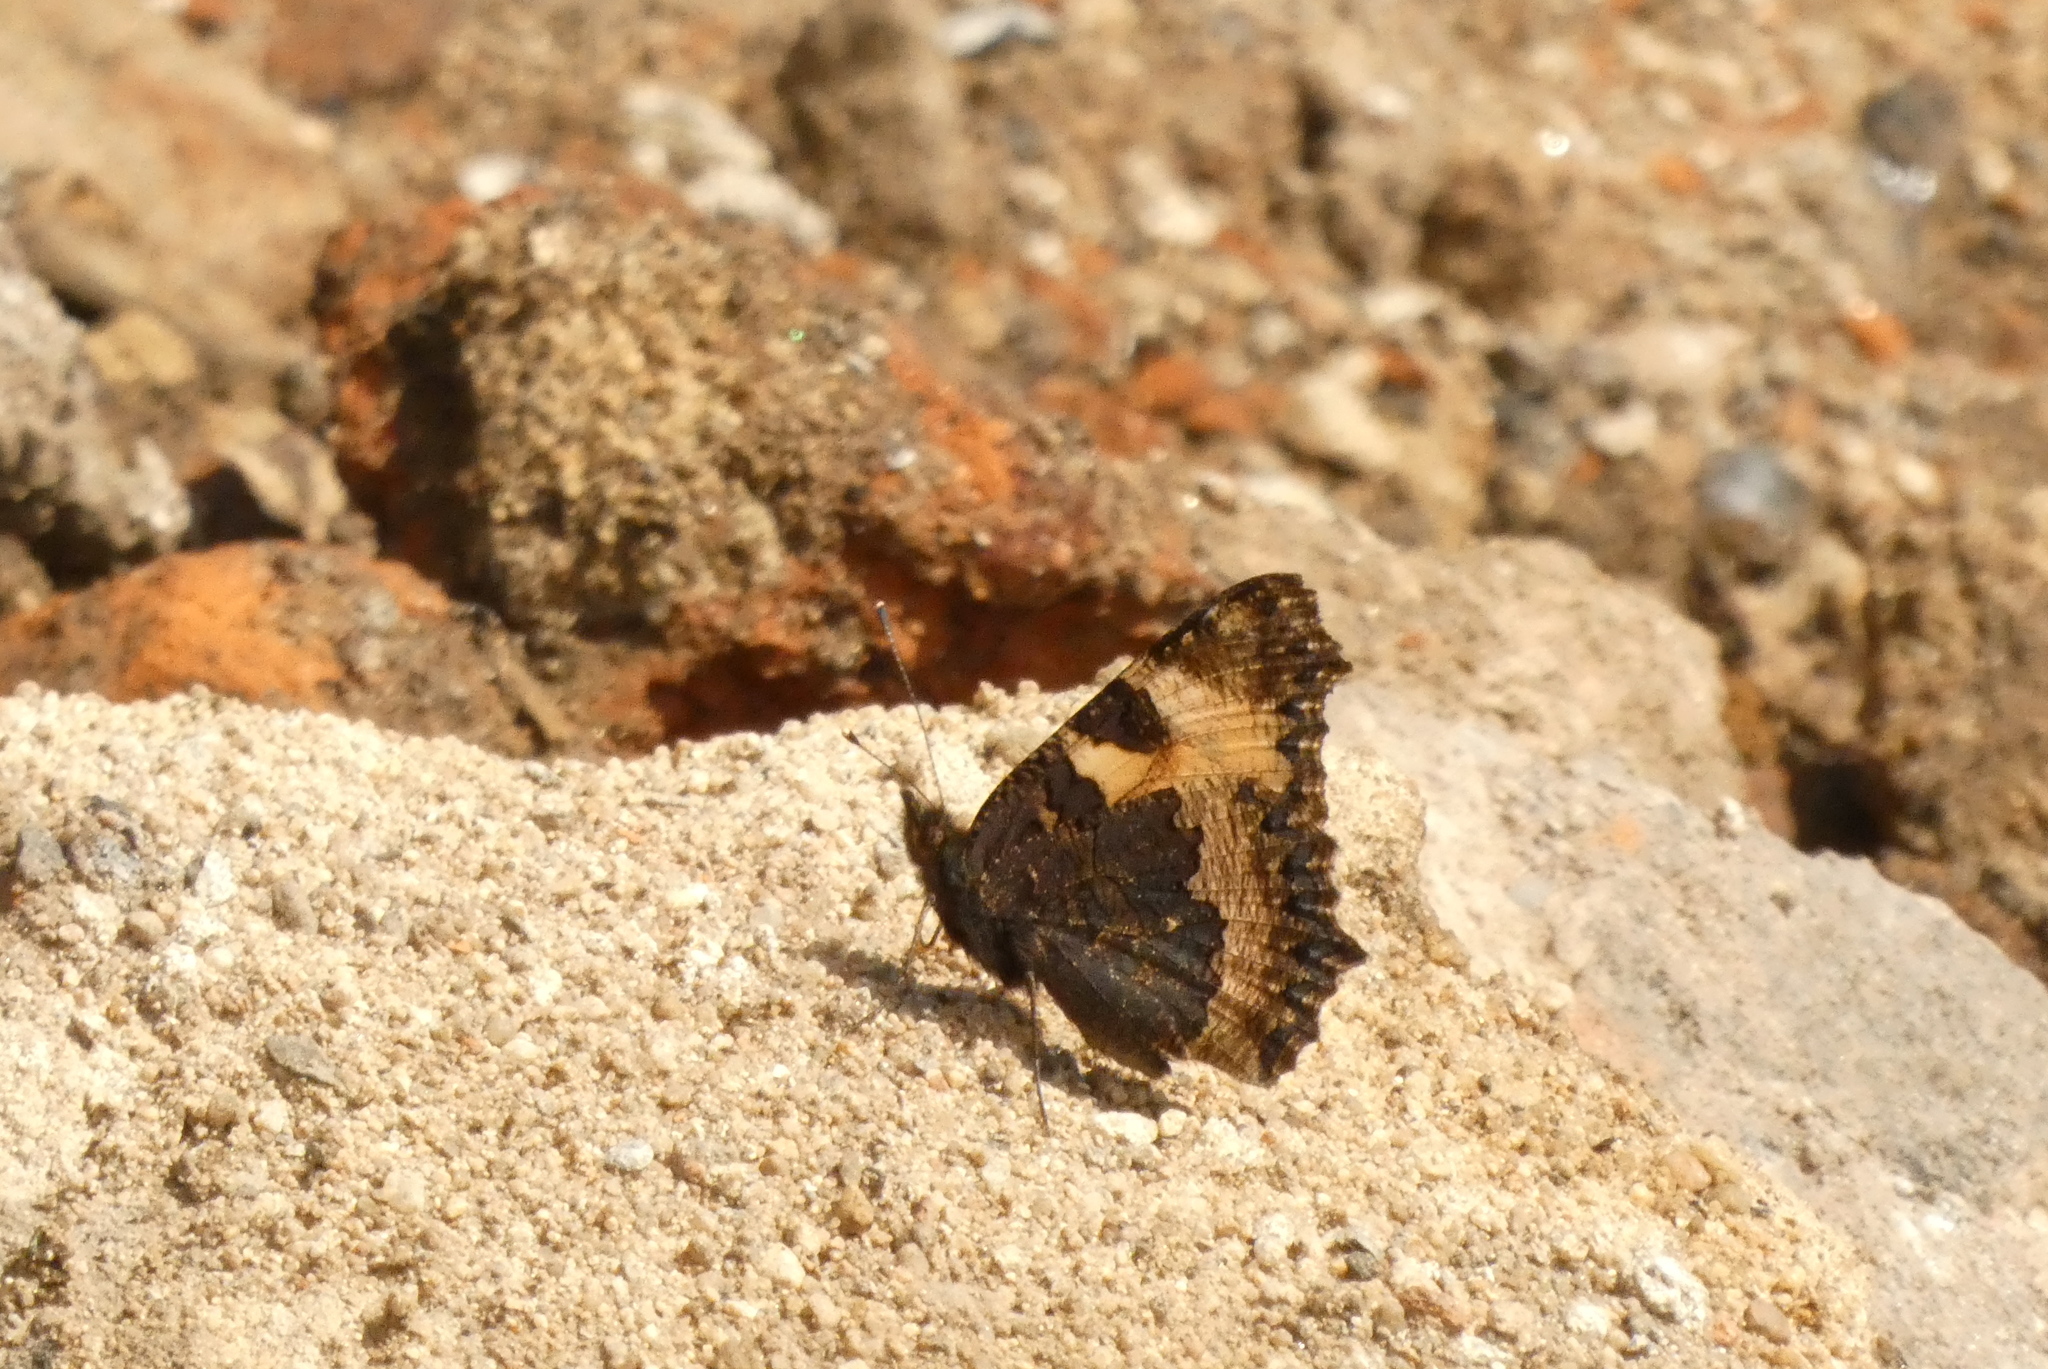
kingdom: Animalia
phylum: Arthropoda
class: Insecta
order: Lepidoptera
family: Nymphalidae
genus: Aglais
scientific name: Aglais urticae
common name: Small tortoiseshell
